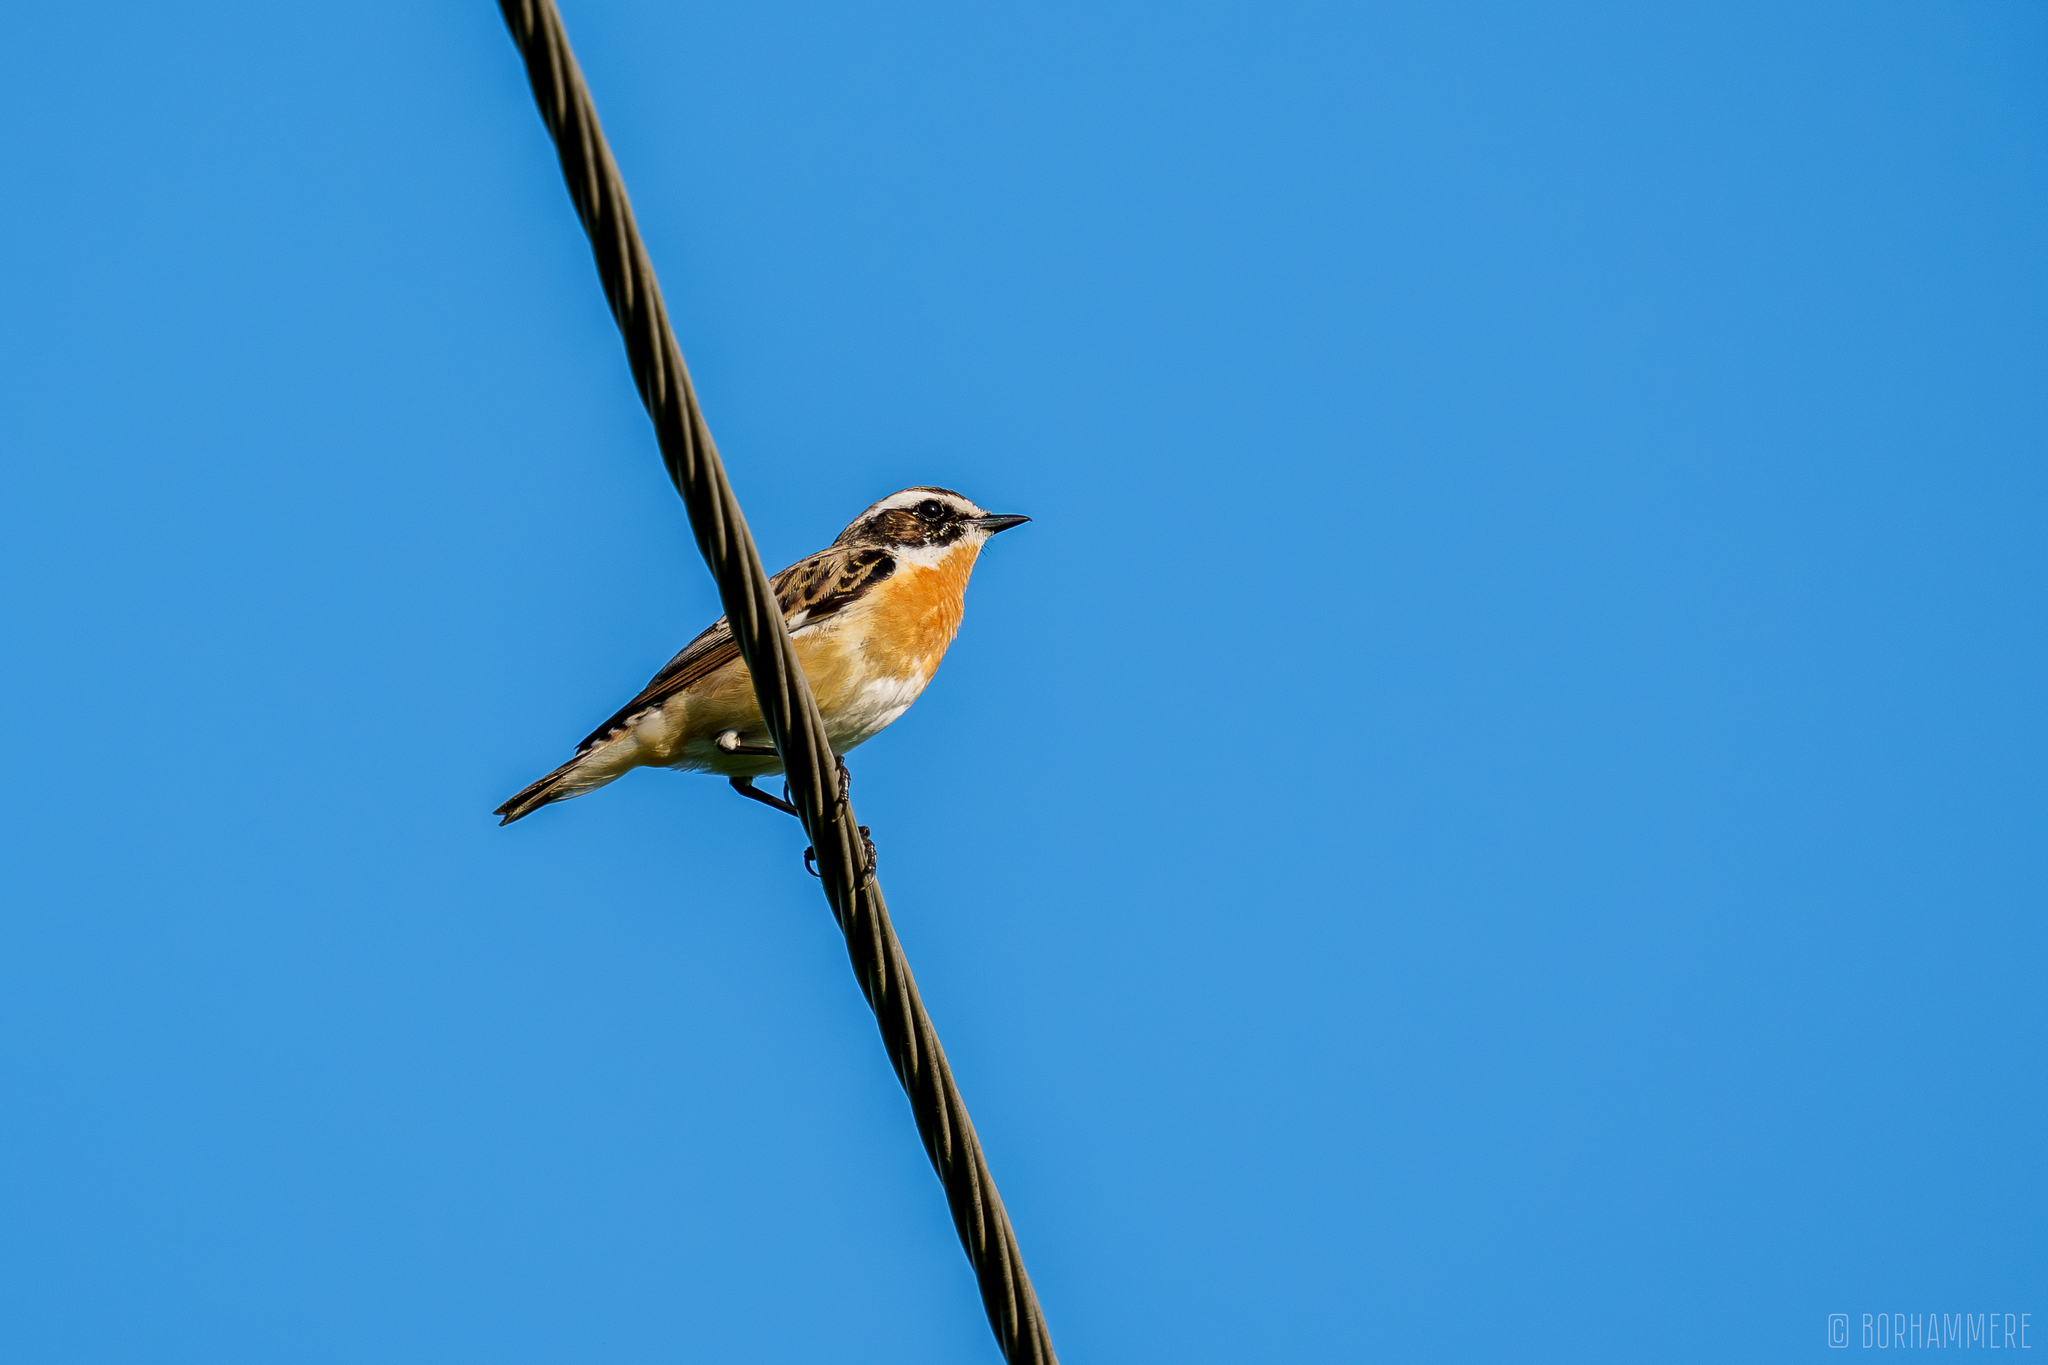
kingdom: Animalia
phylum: Chordata
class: Aves
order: Passeriformes
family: Muscicapidae
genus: Saxicola
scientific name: Saxicola rubetra
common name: Whinchat
